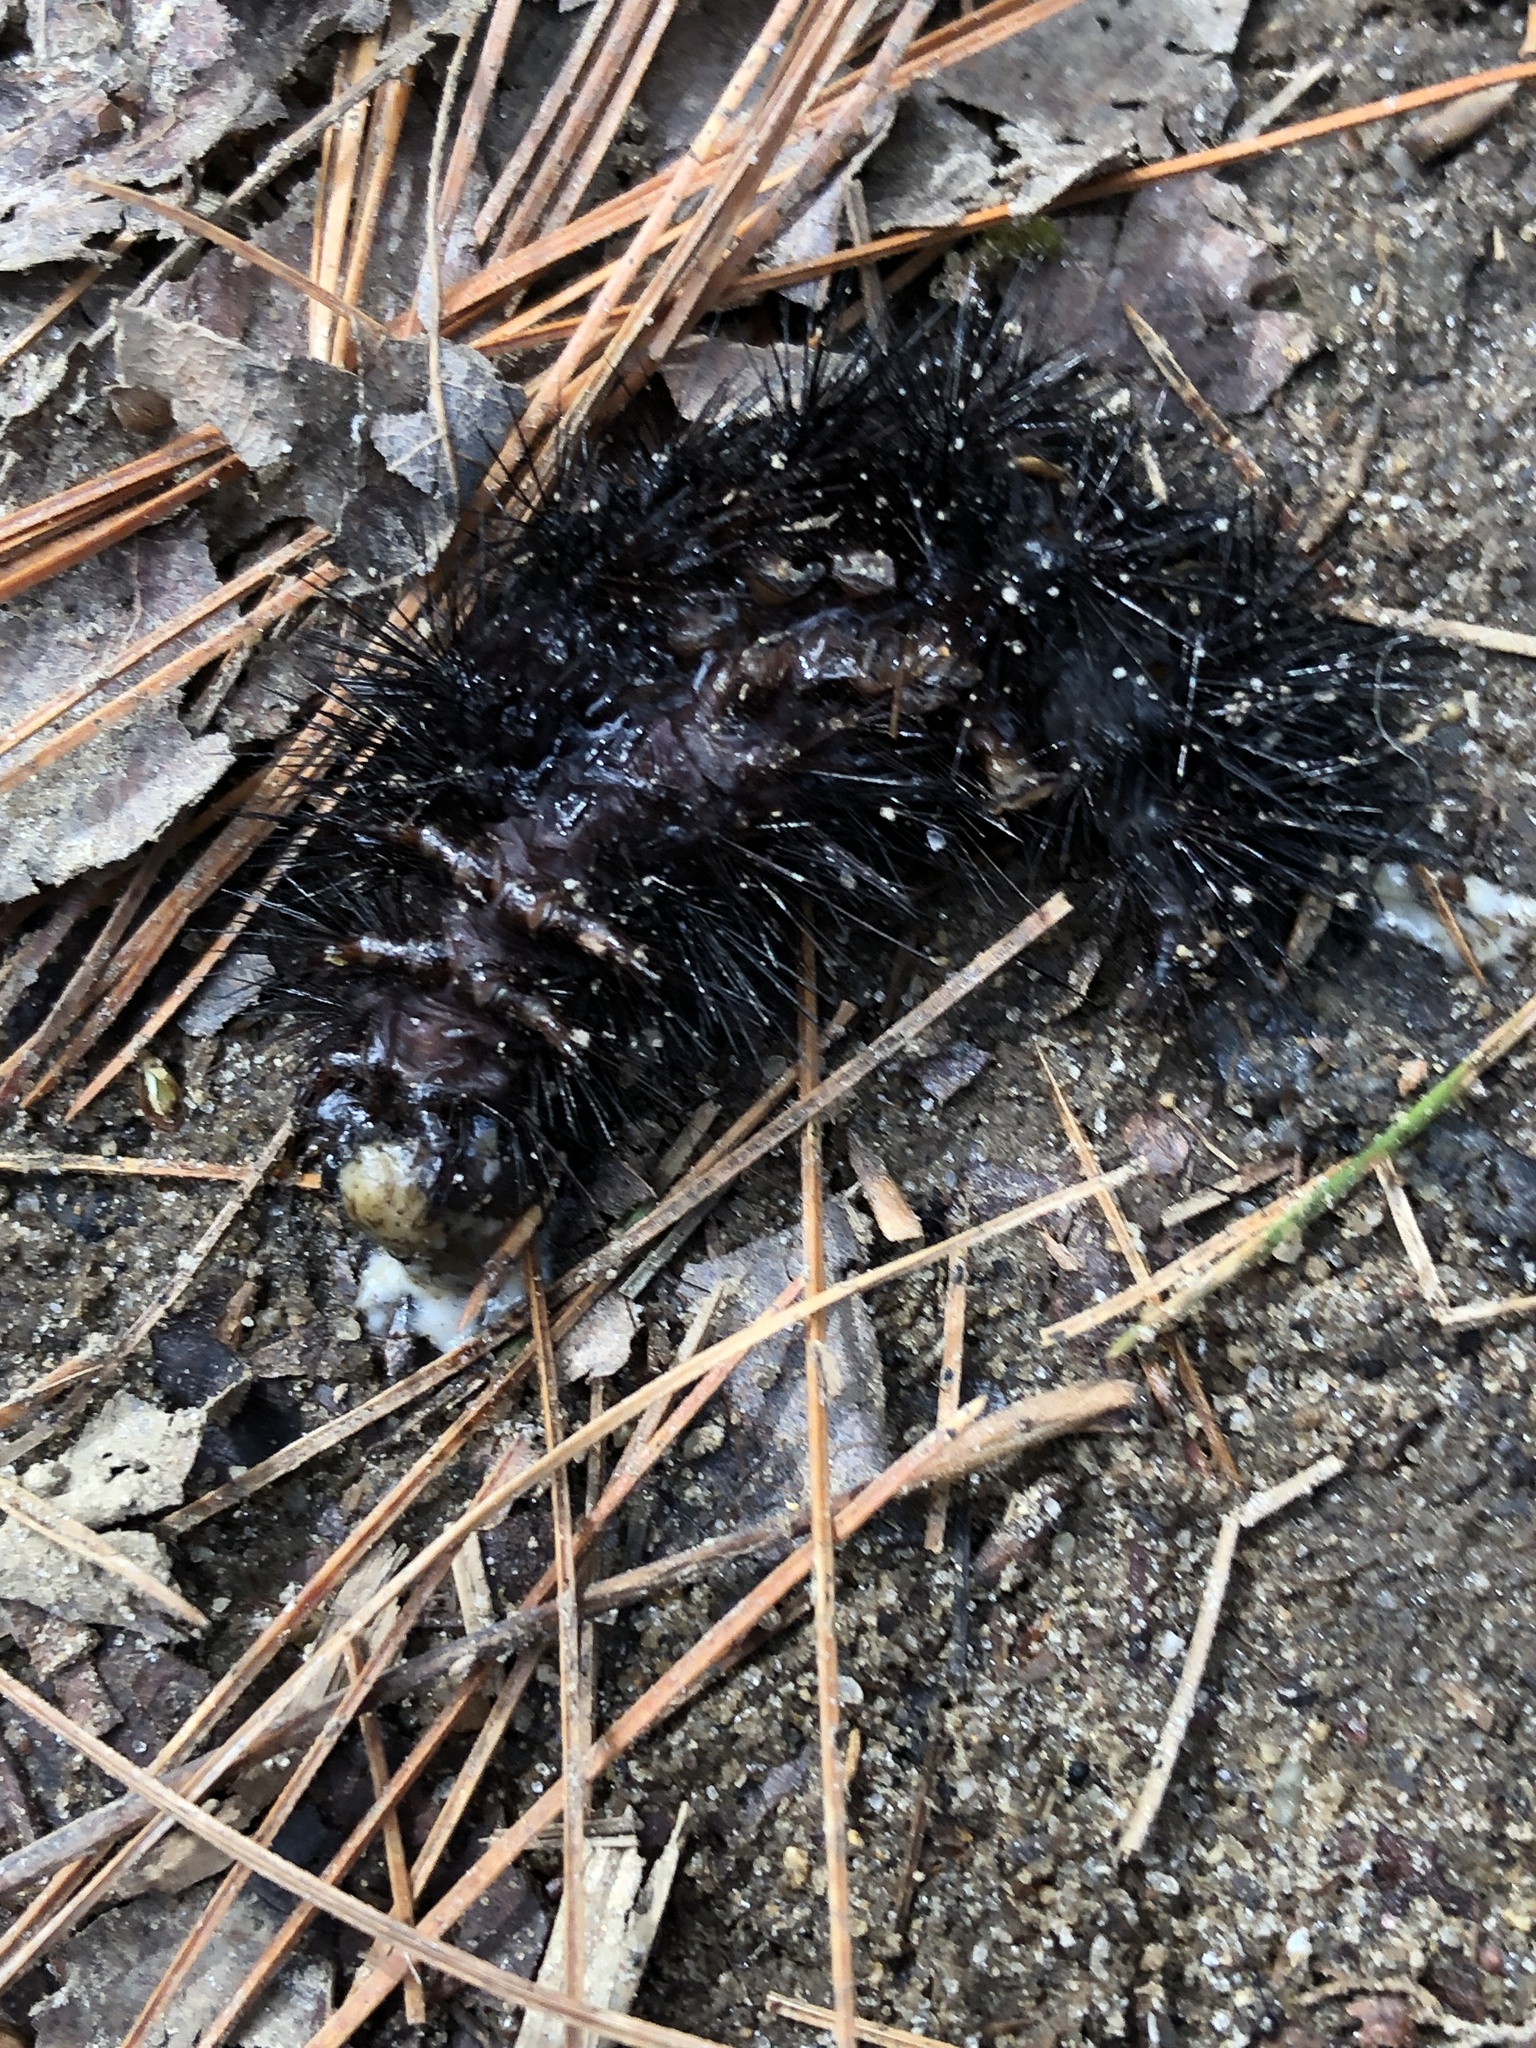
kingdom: Animalia
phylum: Arthropoda
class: Insecta
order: Lepidoptera
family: Erebidae
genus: Hypercompe
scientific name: Hypercompe scribonia
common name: Giant leopard moth
